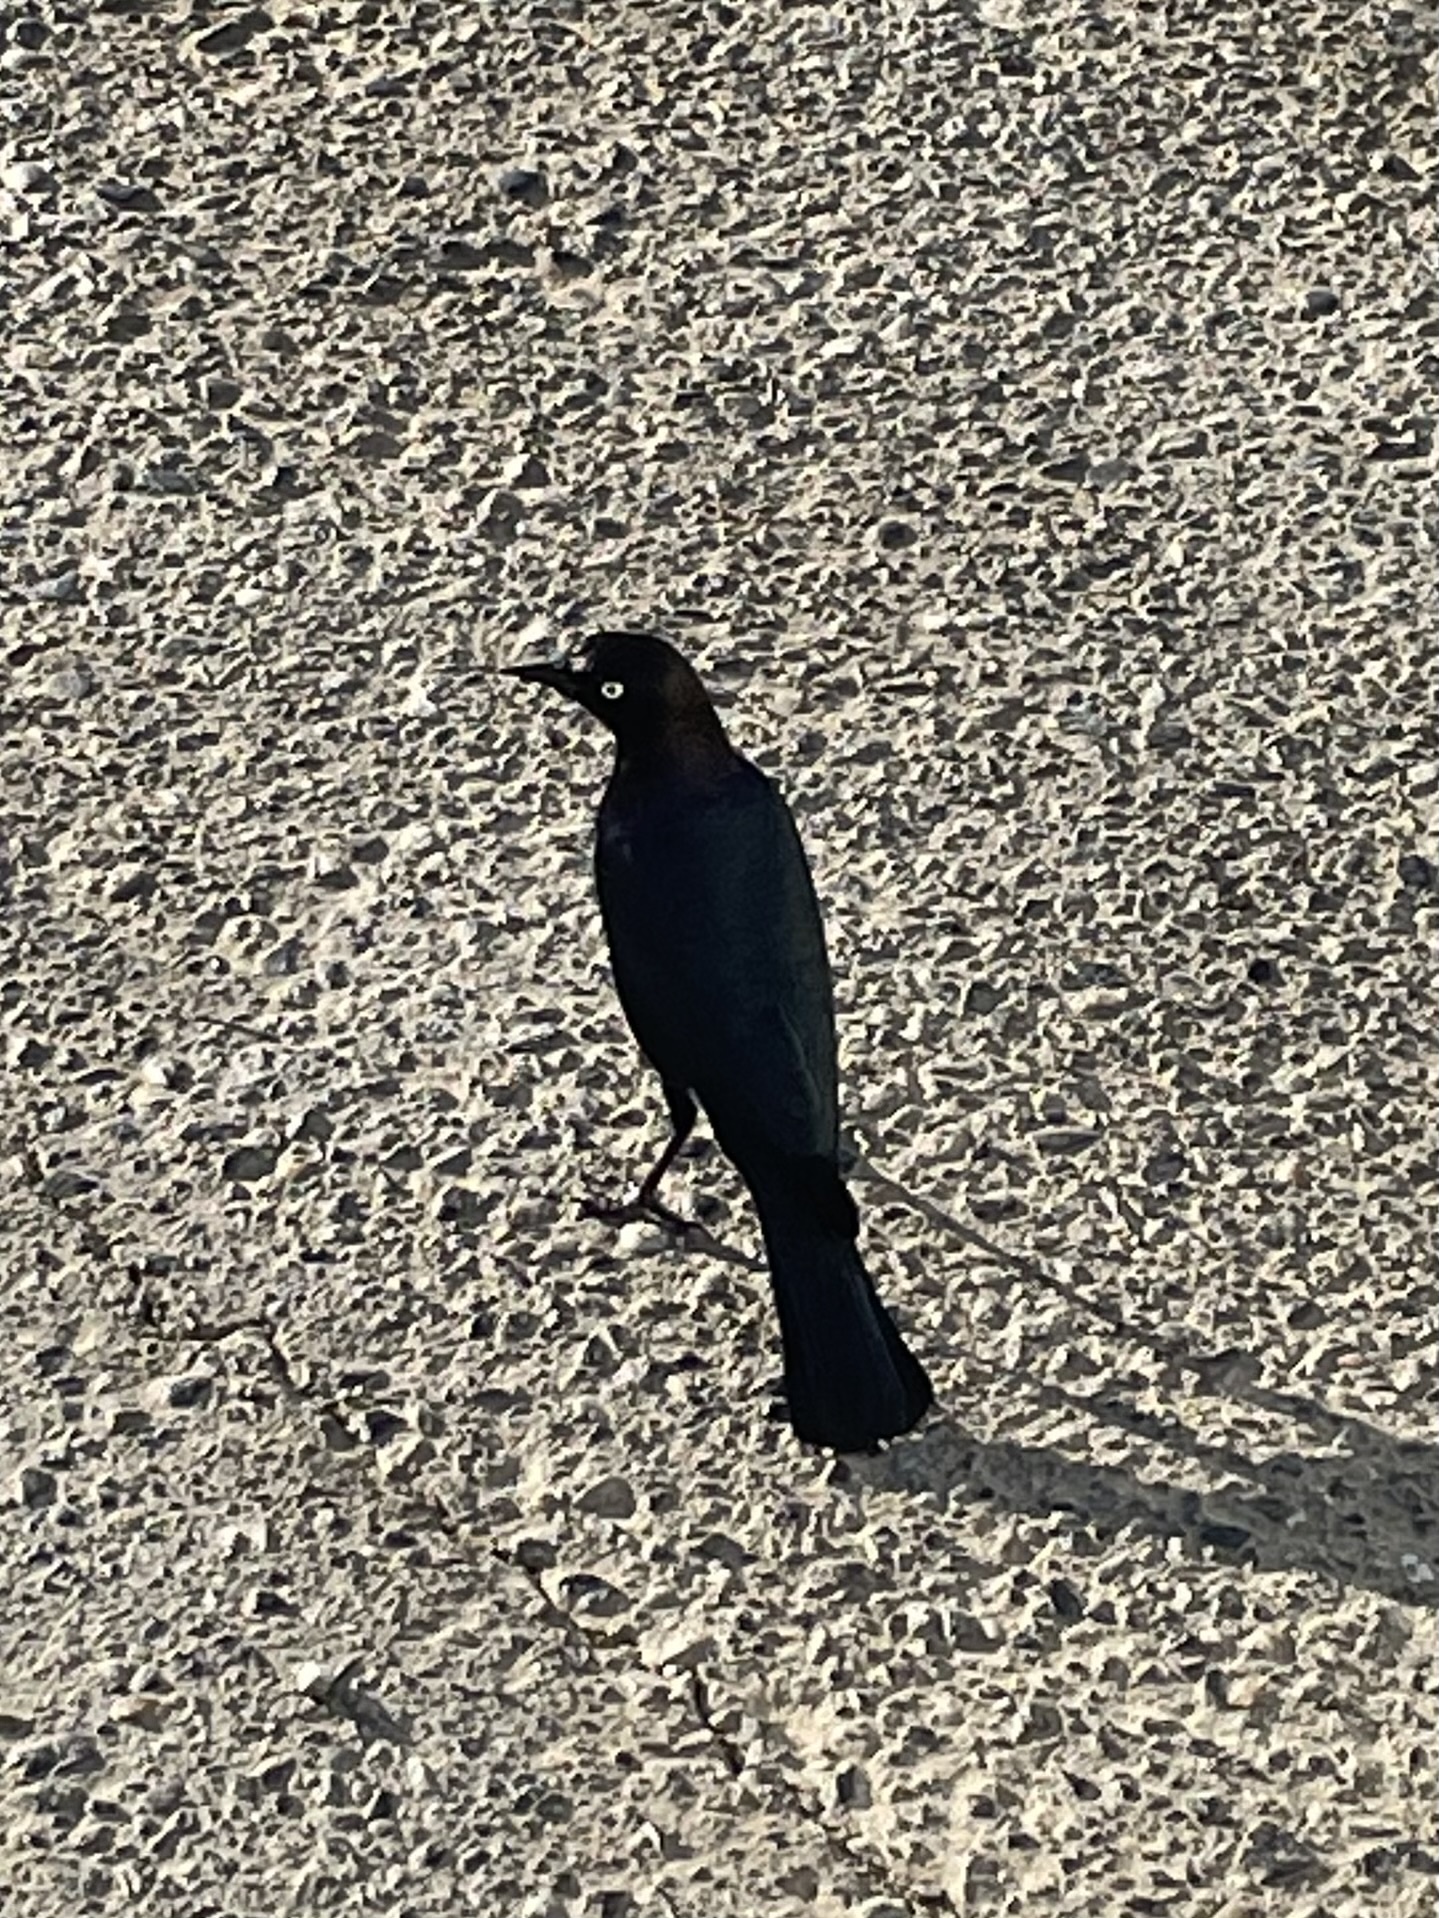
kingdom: Animalia
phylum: Chordata
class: Aves
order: Passeriformes
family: Icteridae
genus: Euphagus
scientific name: Euphagus cyanocephalus
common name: Brewer's blackbird
